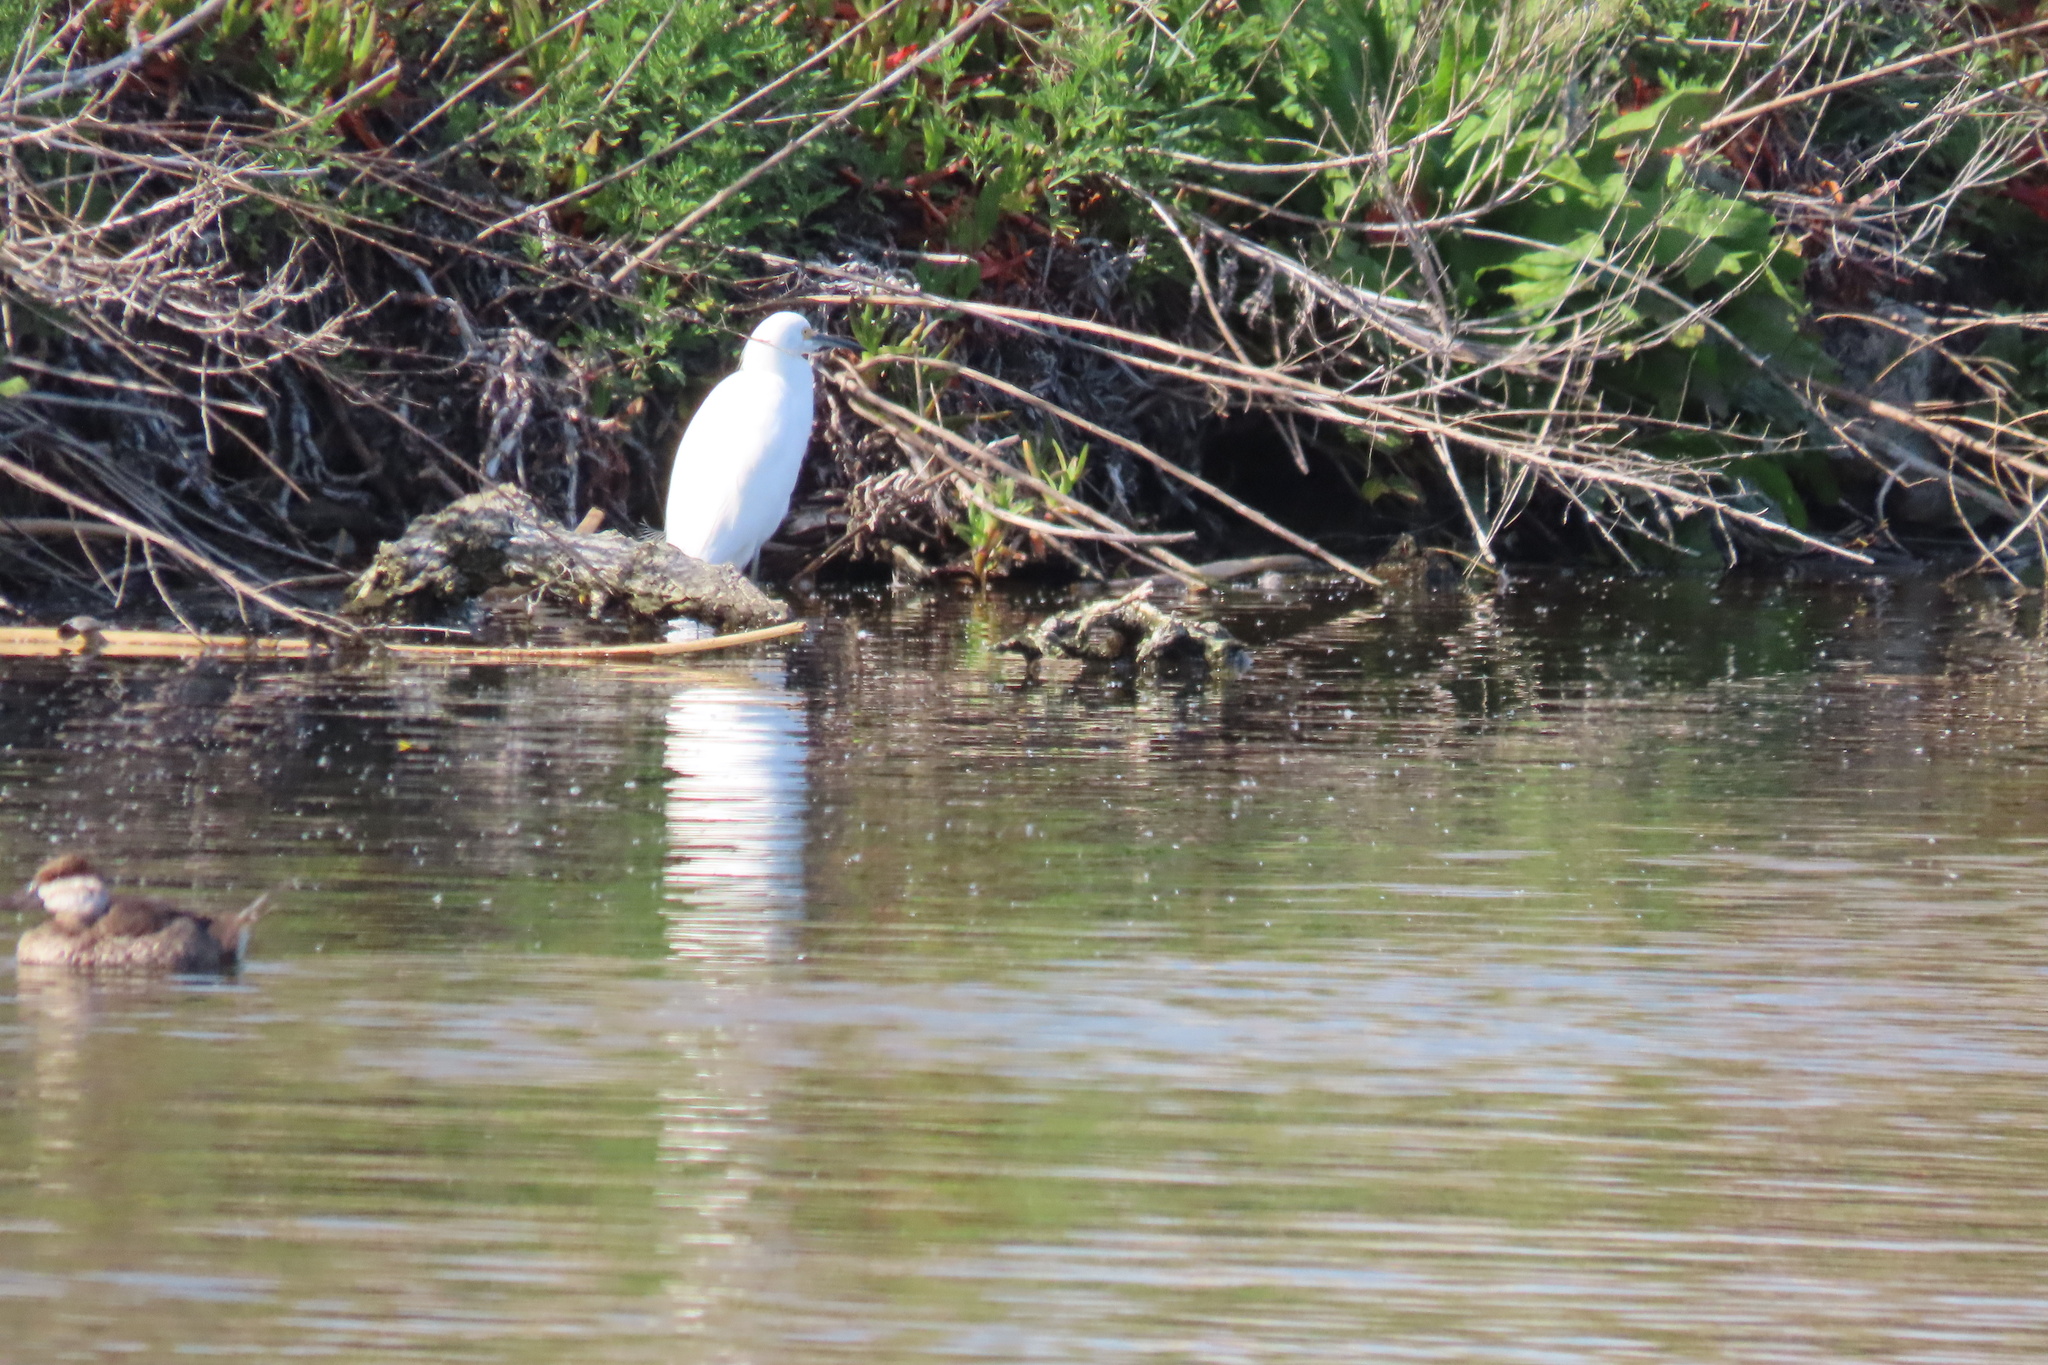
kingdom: Animalia
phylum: Chordata
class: Aves
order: Pelecaniformes
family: Ardeidae
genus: Egretta
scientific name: Egretta thula
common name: Snowy egret
